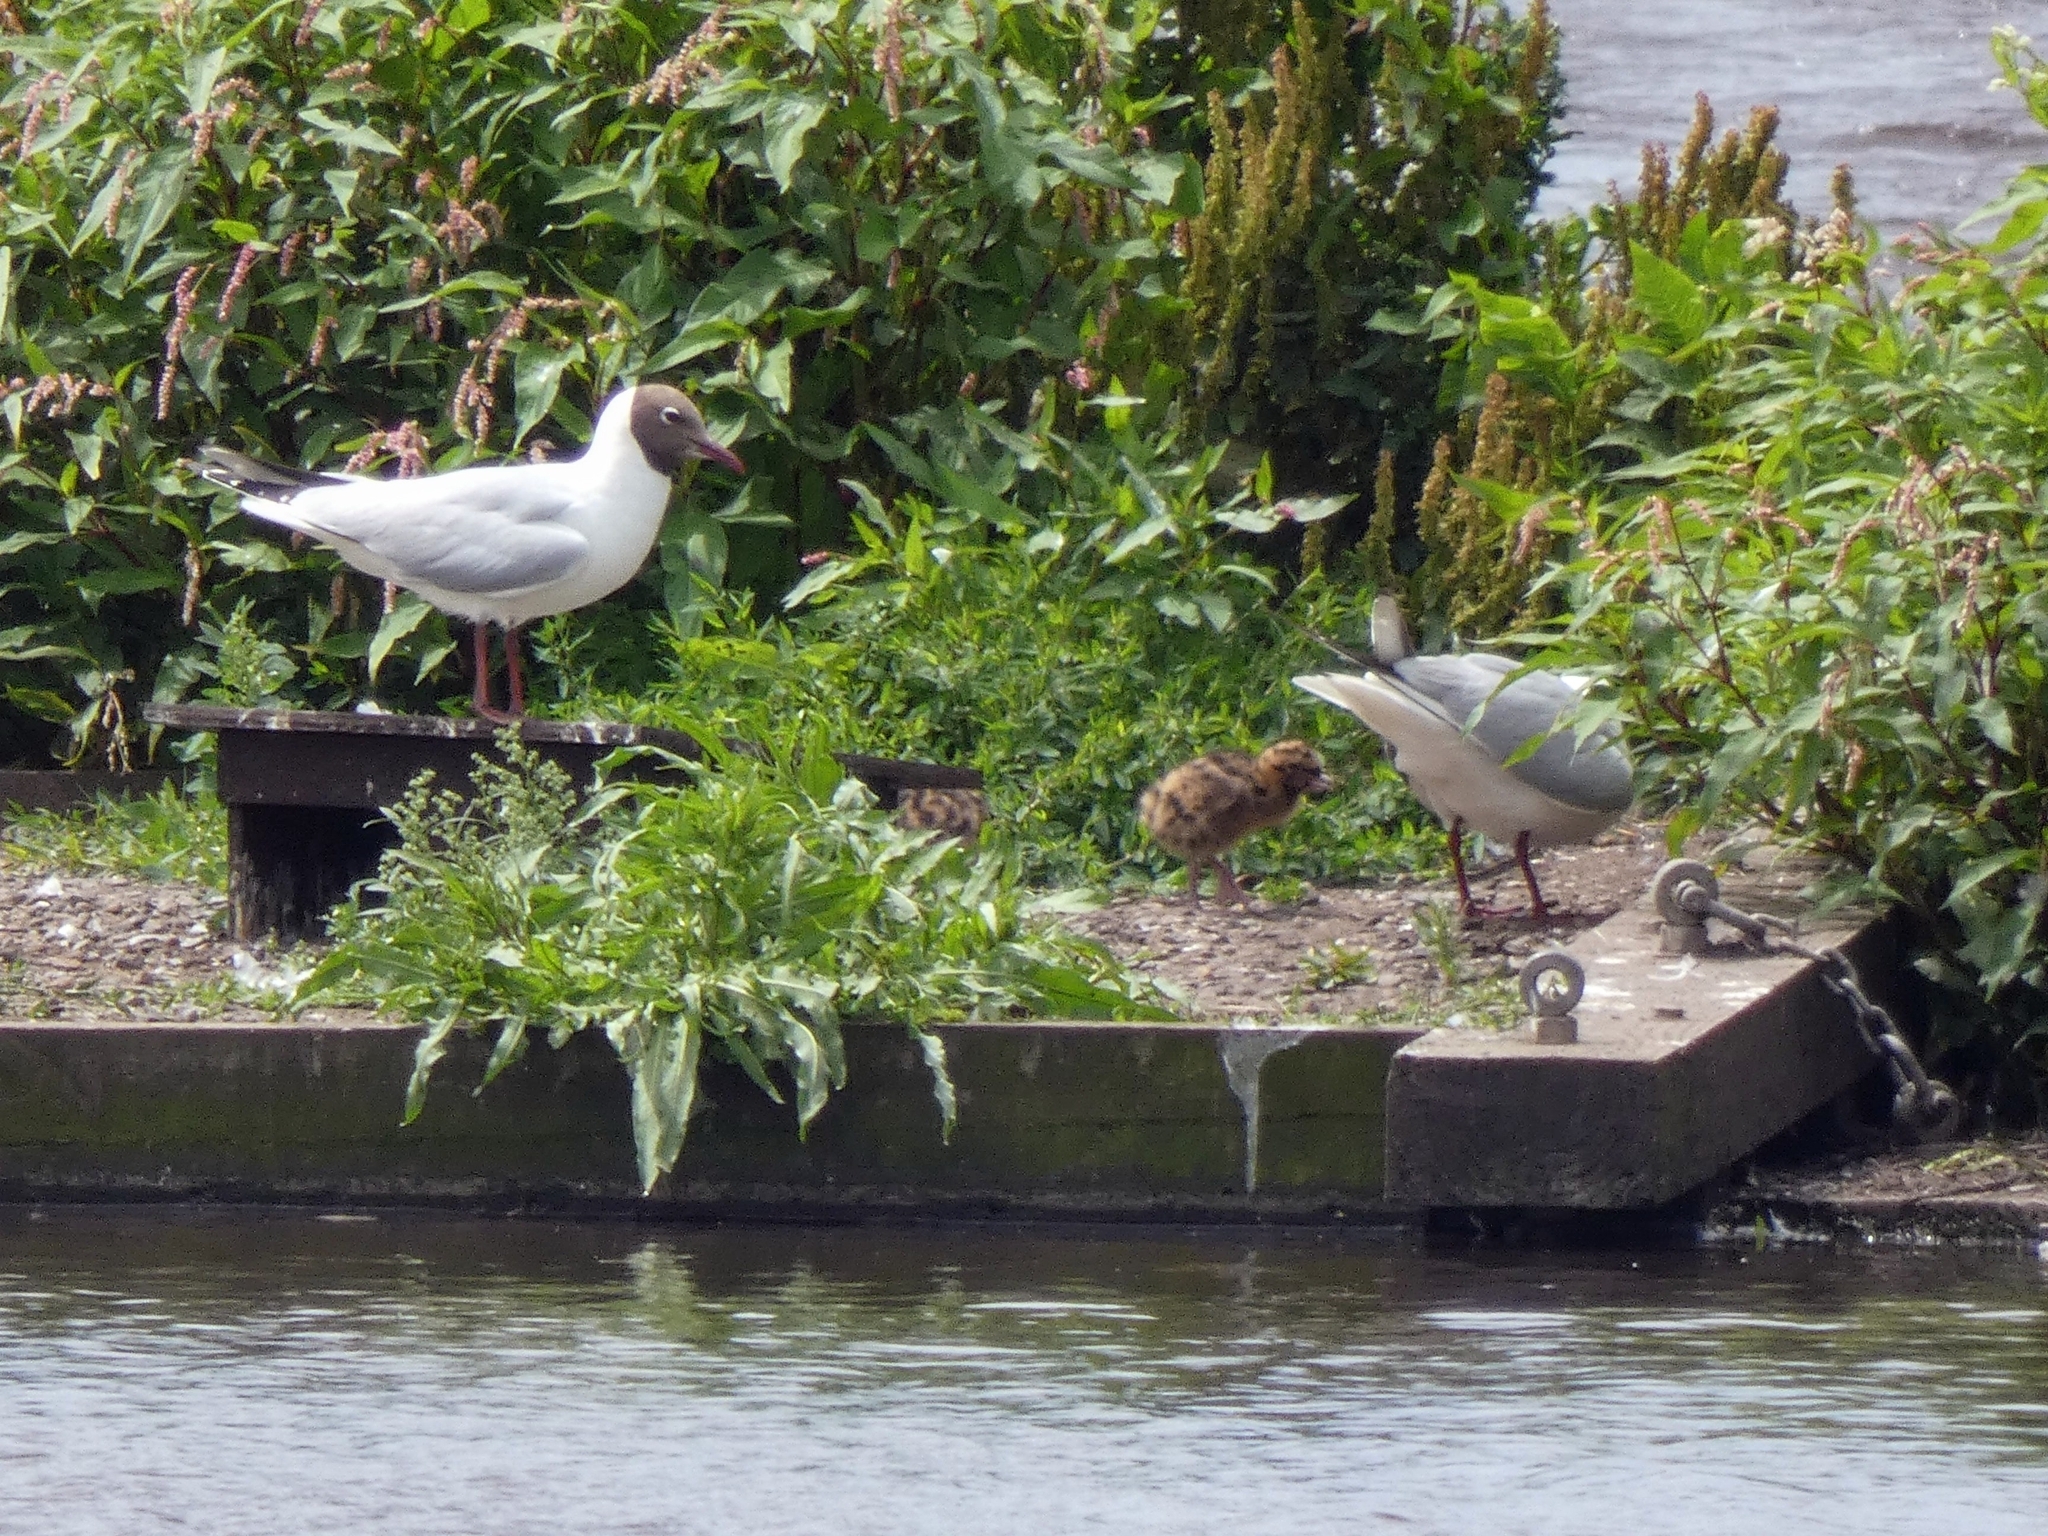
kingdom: Animalia
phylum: Chordata
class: Aves
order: Charadriiformes
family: Laridae
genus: Chroicocephalus
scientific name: Chroicocephalus ridibundus
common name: Black-headed gull
